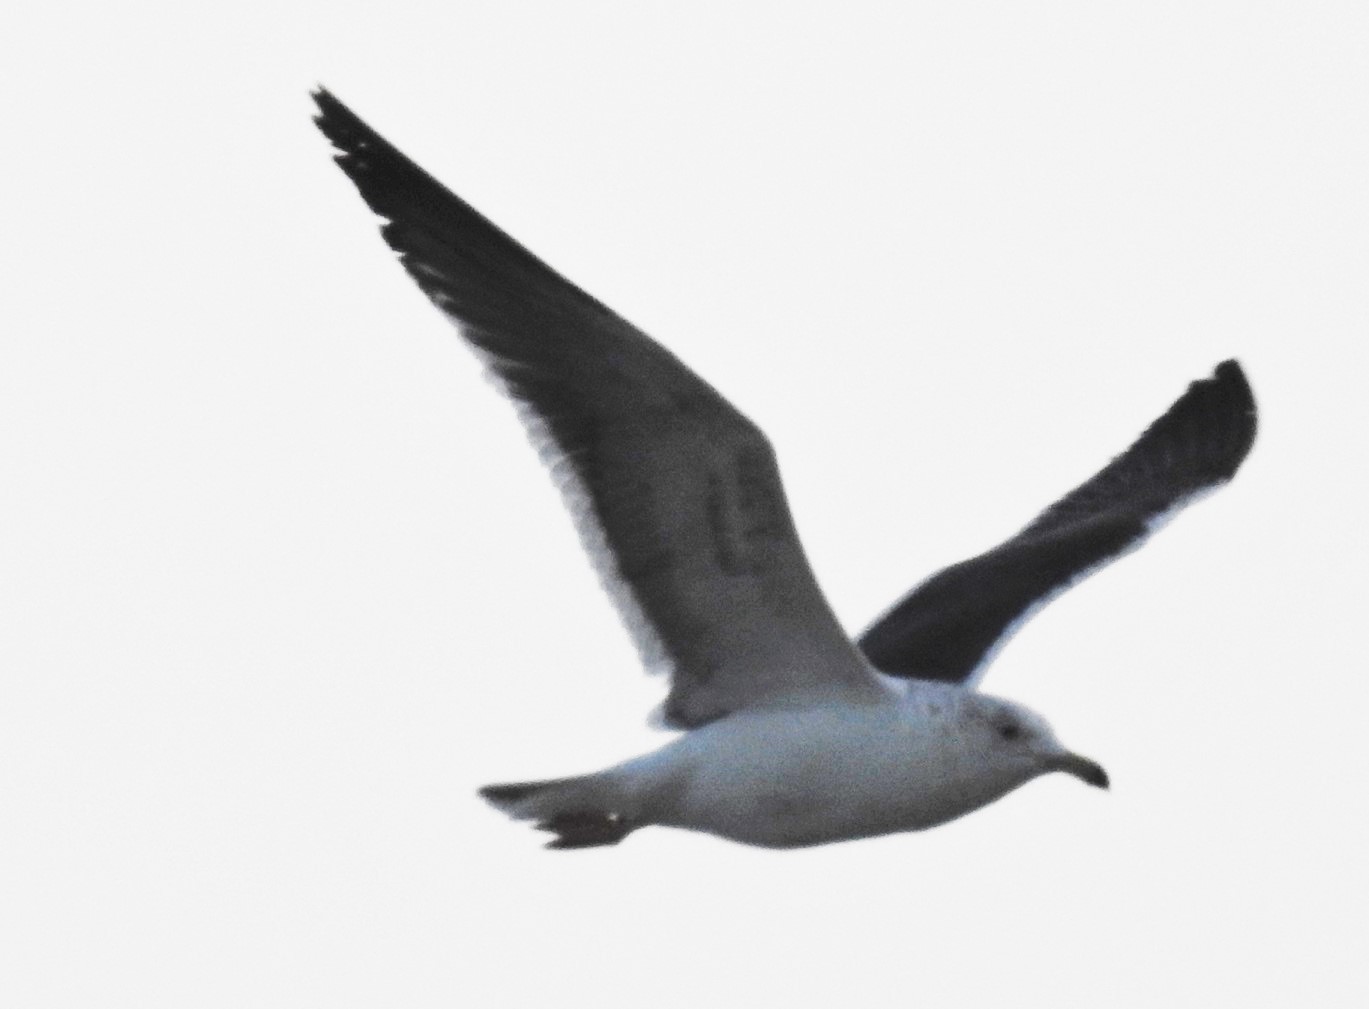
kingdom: Animalia
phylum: Chordata
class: Aves
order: Charadriiformes
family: Laridae
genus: Larus
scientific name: Larus fuscus
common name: Lesser black-backed gull
